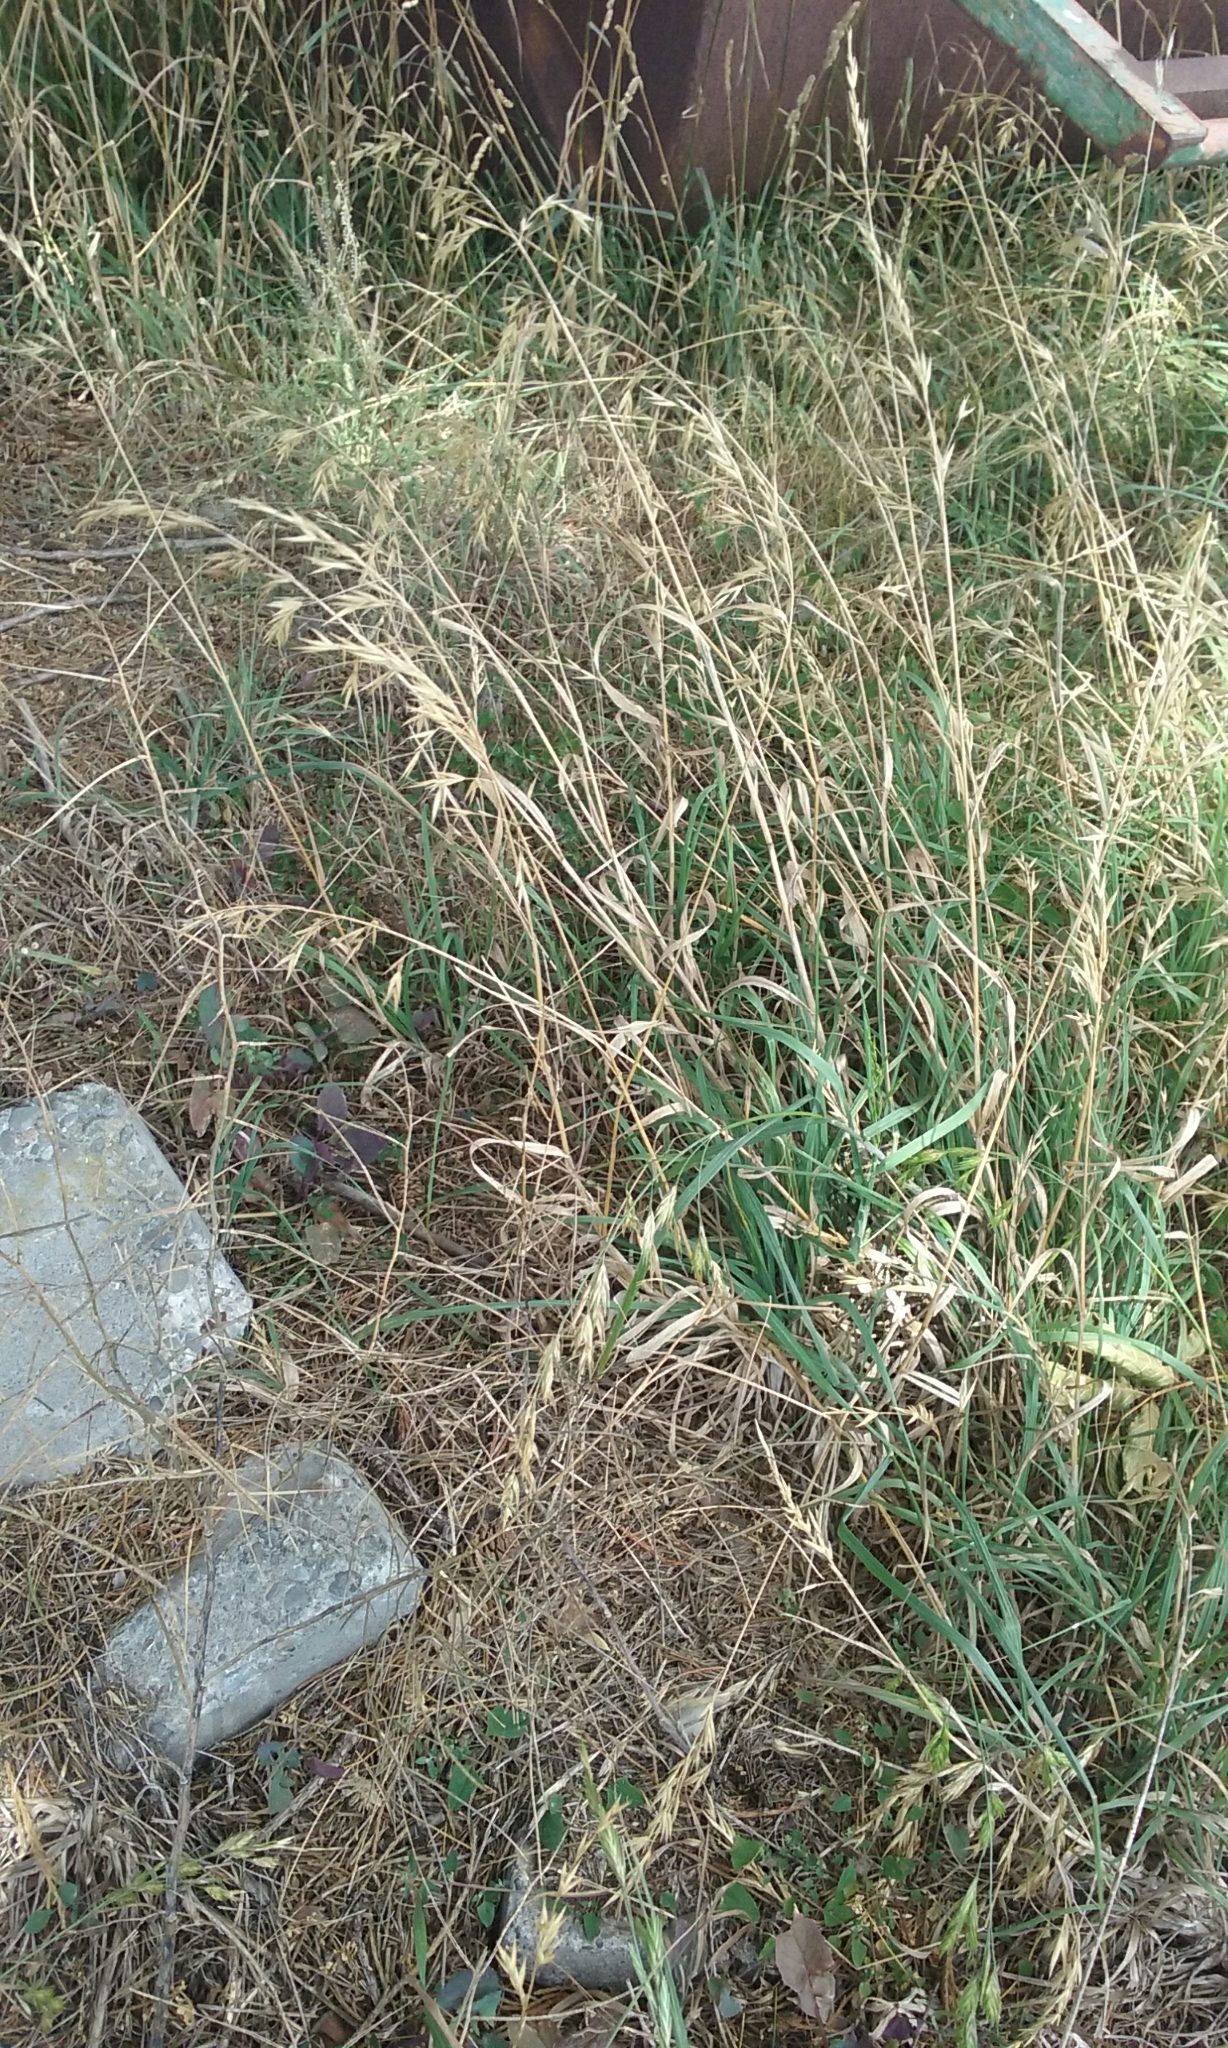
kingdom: Plantae
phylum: Tracheophyta
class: Liliopsida
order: Poales
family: Poaceae
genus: Bromus
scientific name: Bromus catharticus
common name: Rescuegrass
